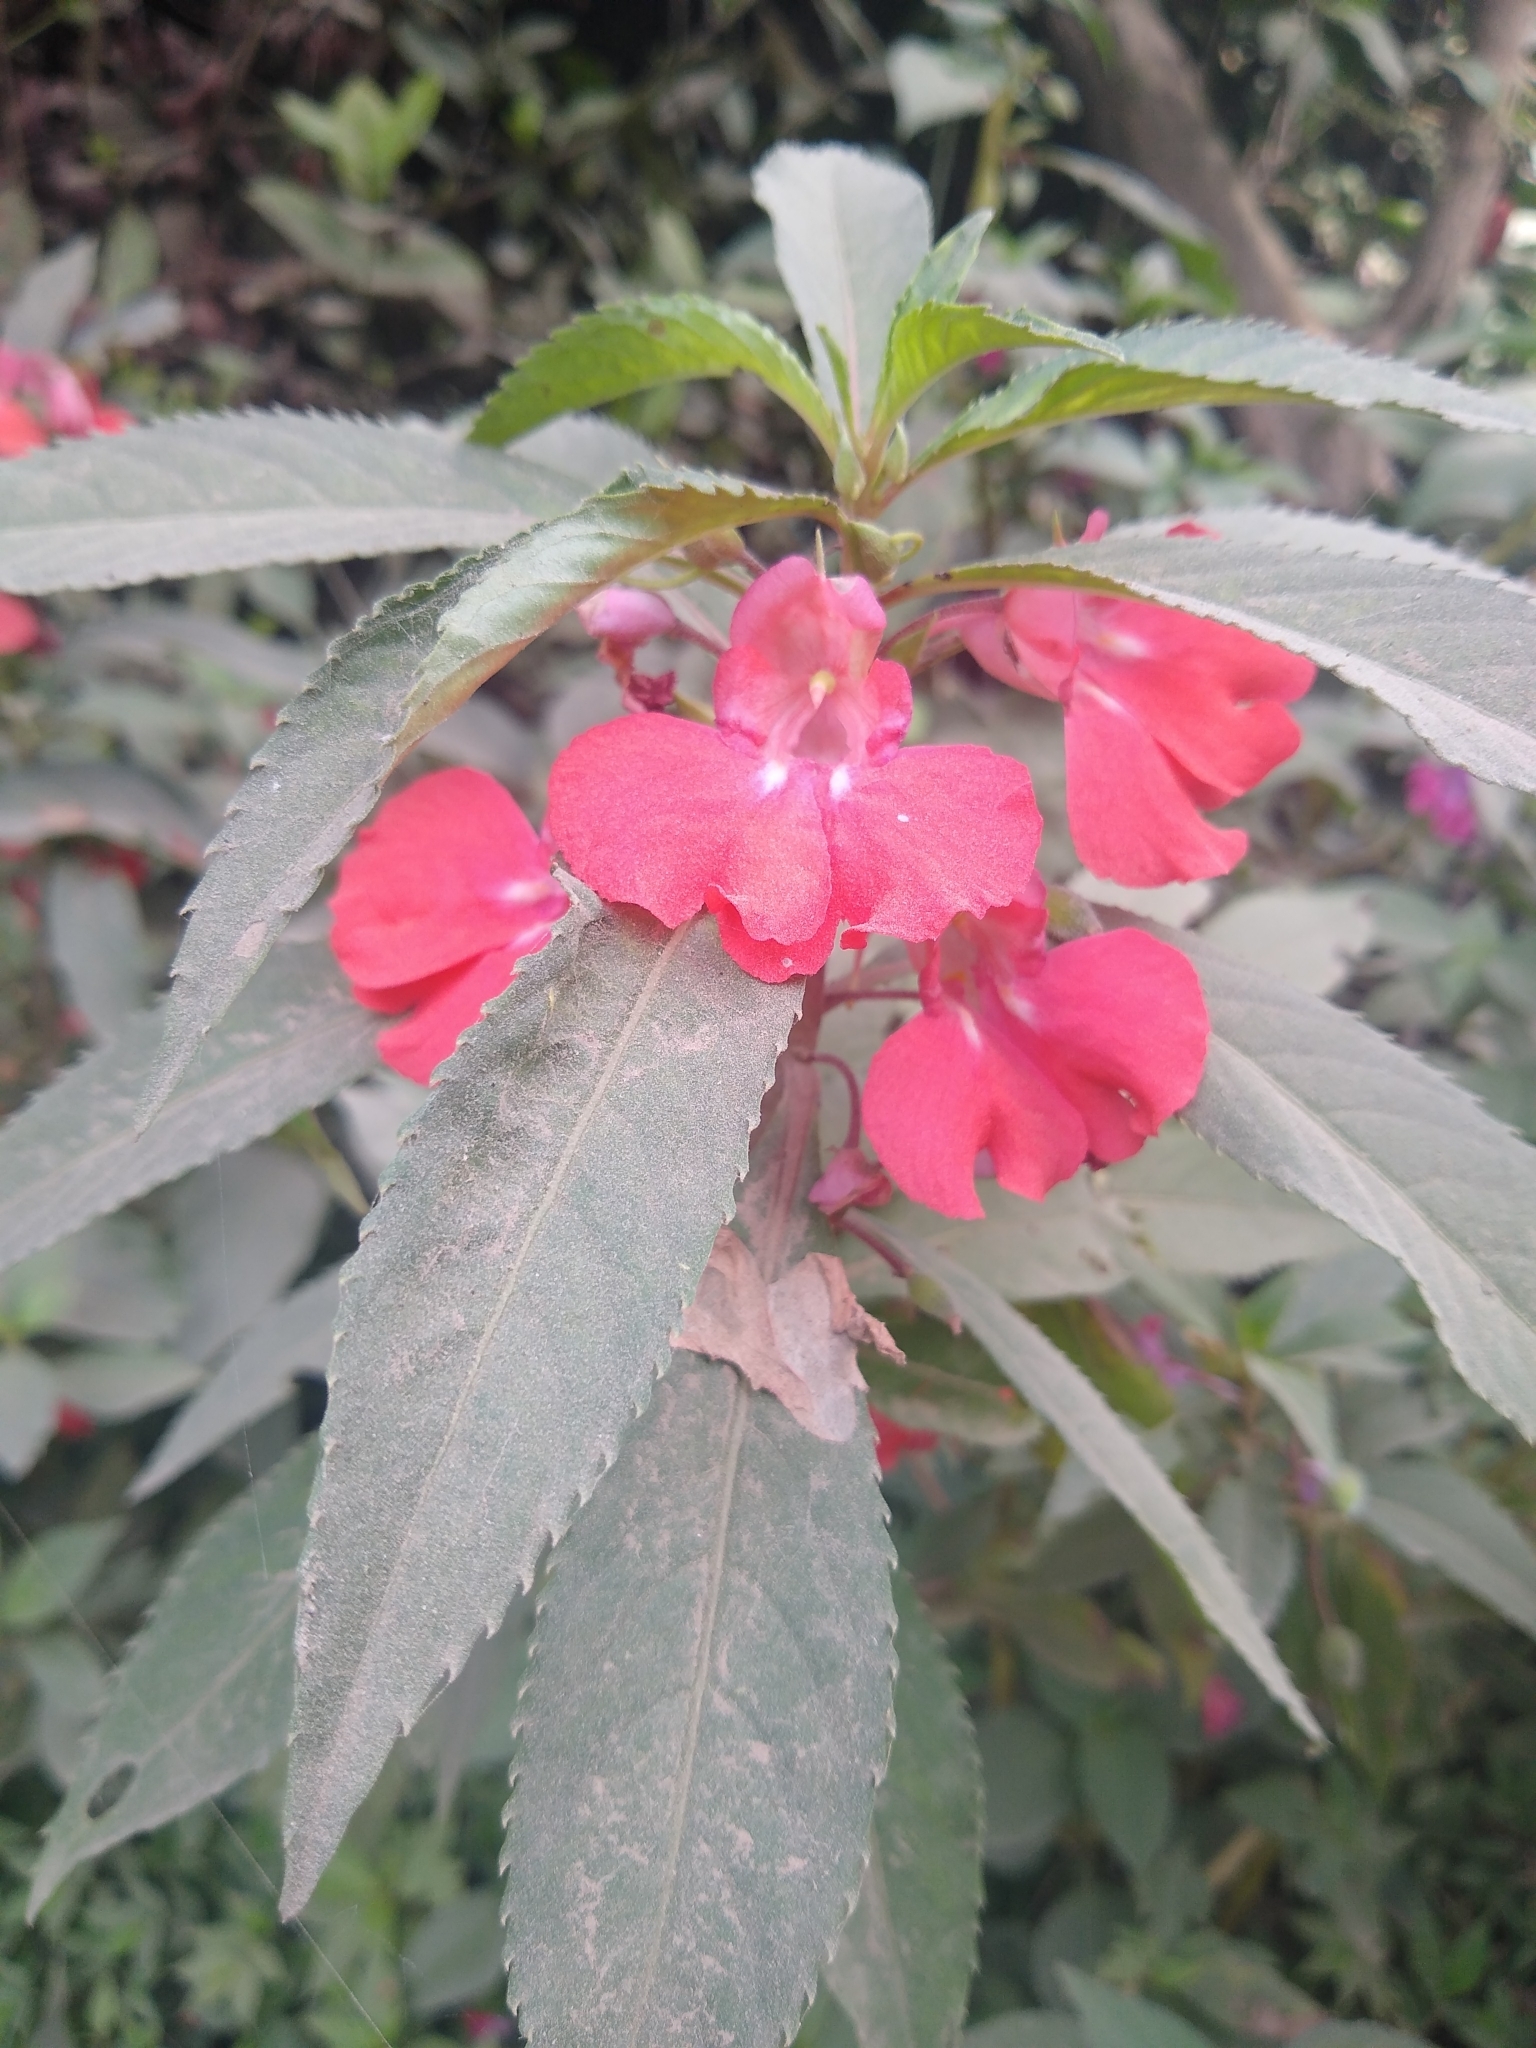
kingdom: Plantae
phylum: Tracheophyta
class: Magnoliopsida
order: Ericales
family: Balsaminaceae
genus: Impatiens
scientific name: Impatiens balsamina
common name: Balsam
